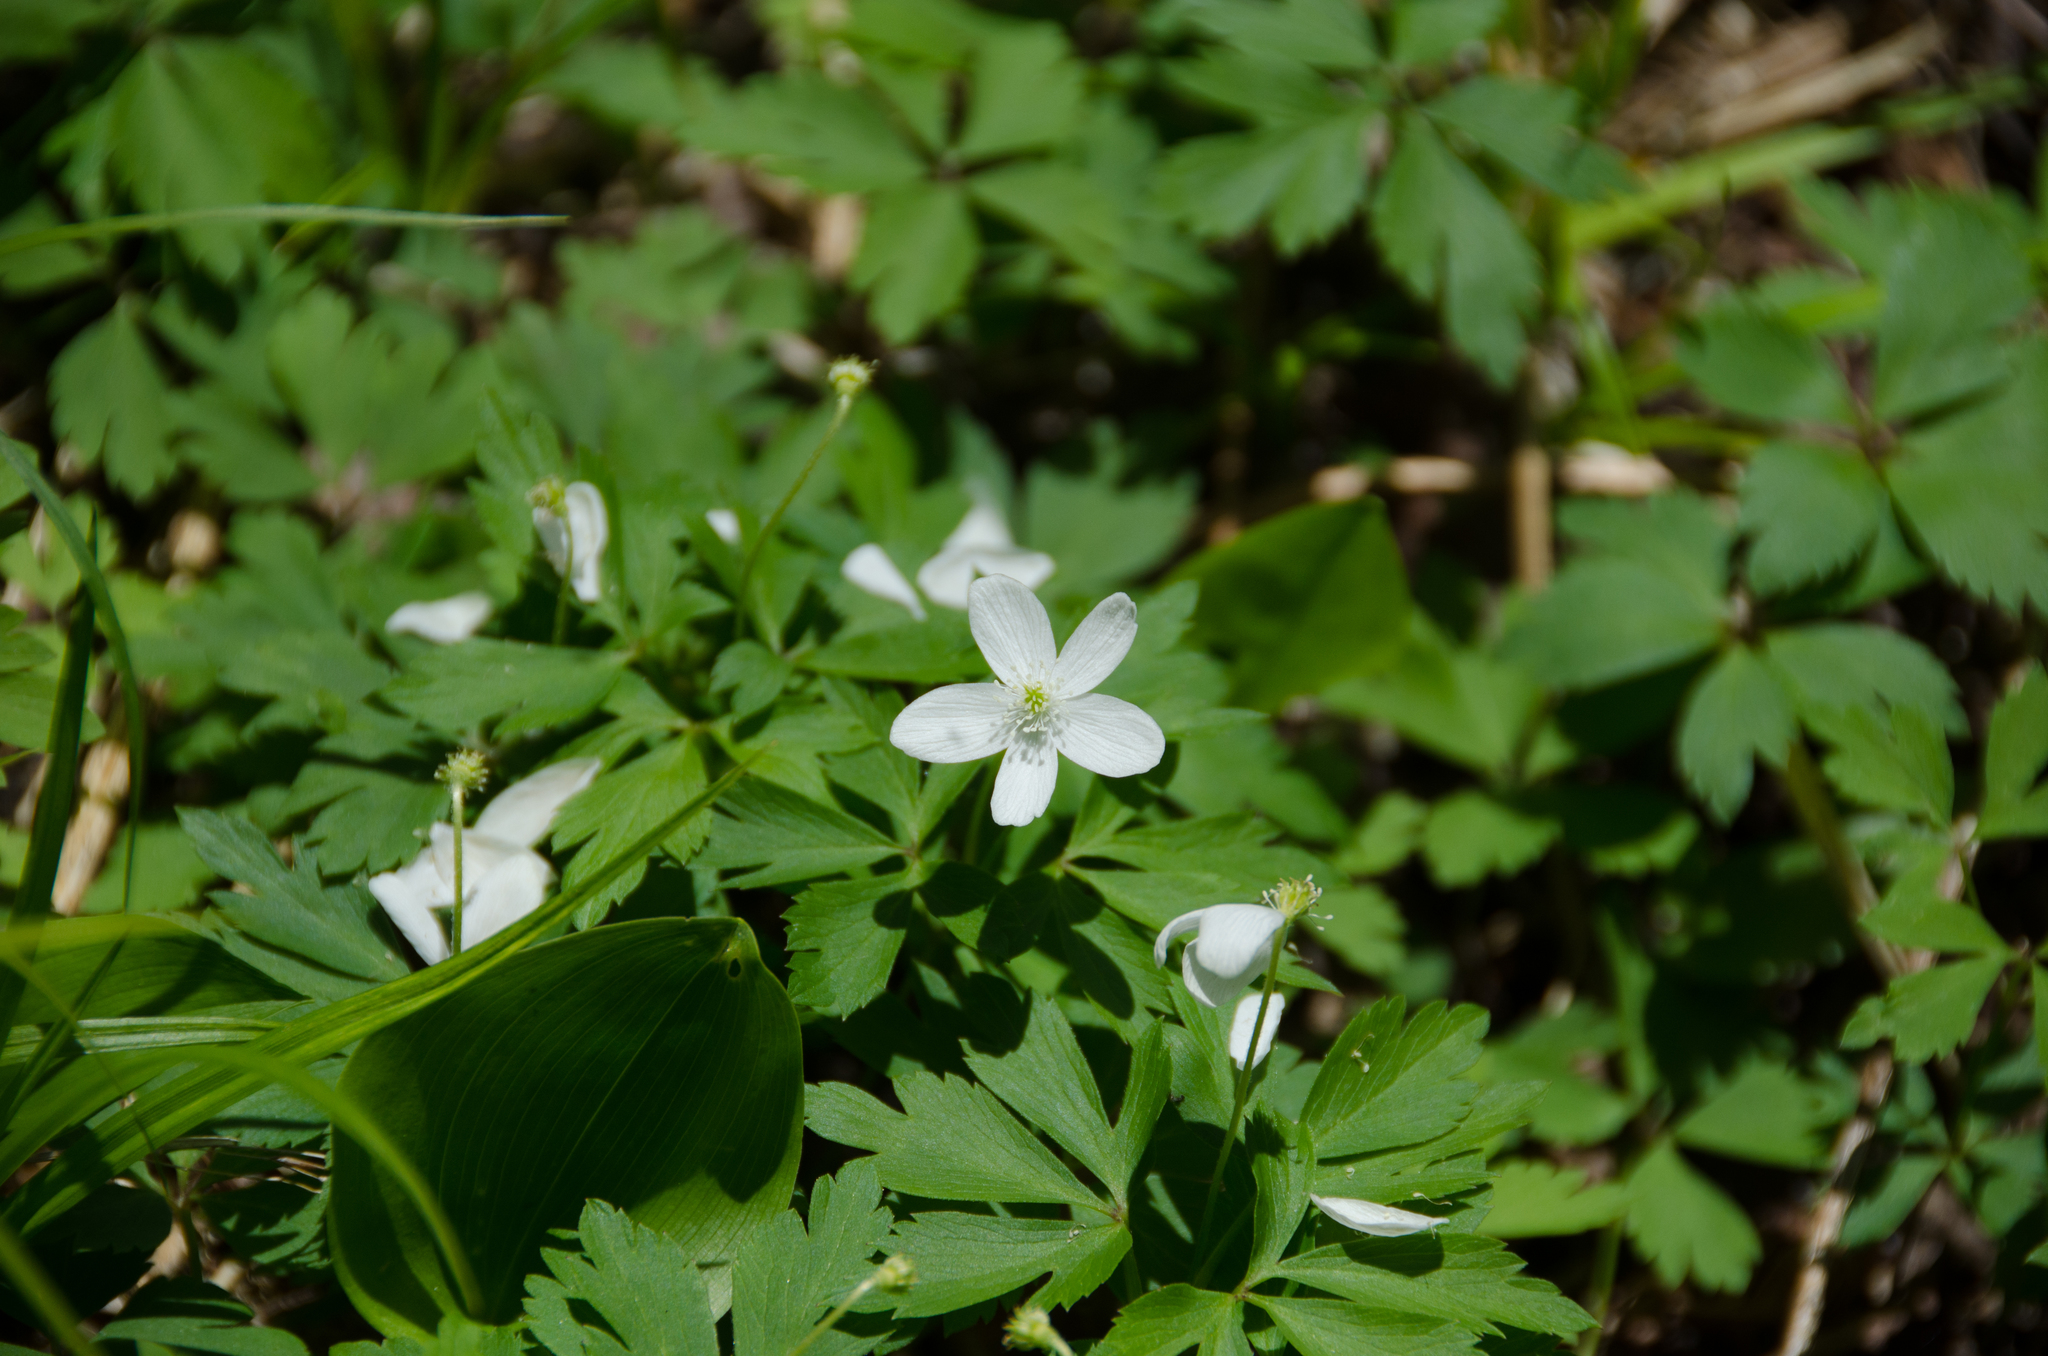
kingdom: Plantae
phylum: Tracheophyta
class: Magnoliopsida
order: Ranunculales
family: Ranunculaceae
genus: Anemone
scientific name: Anemone quinquefolia
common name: Wood anemone
